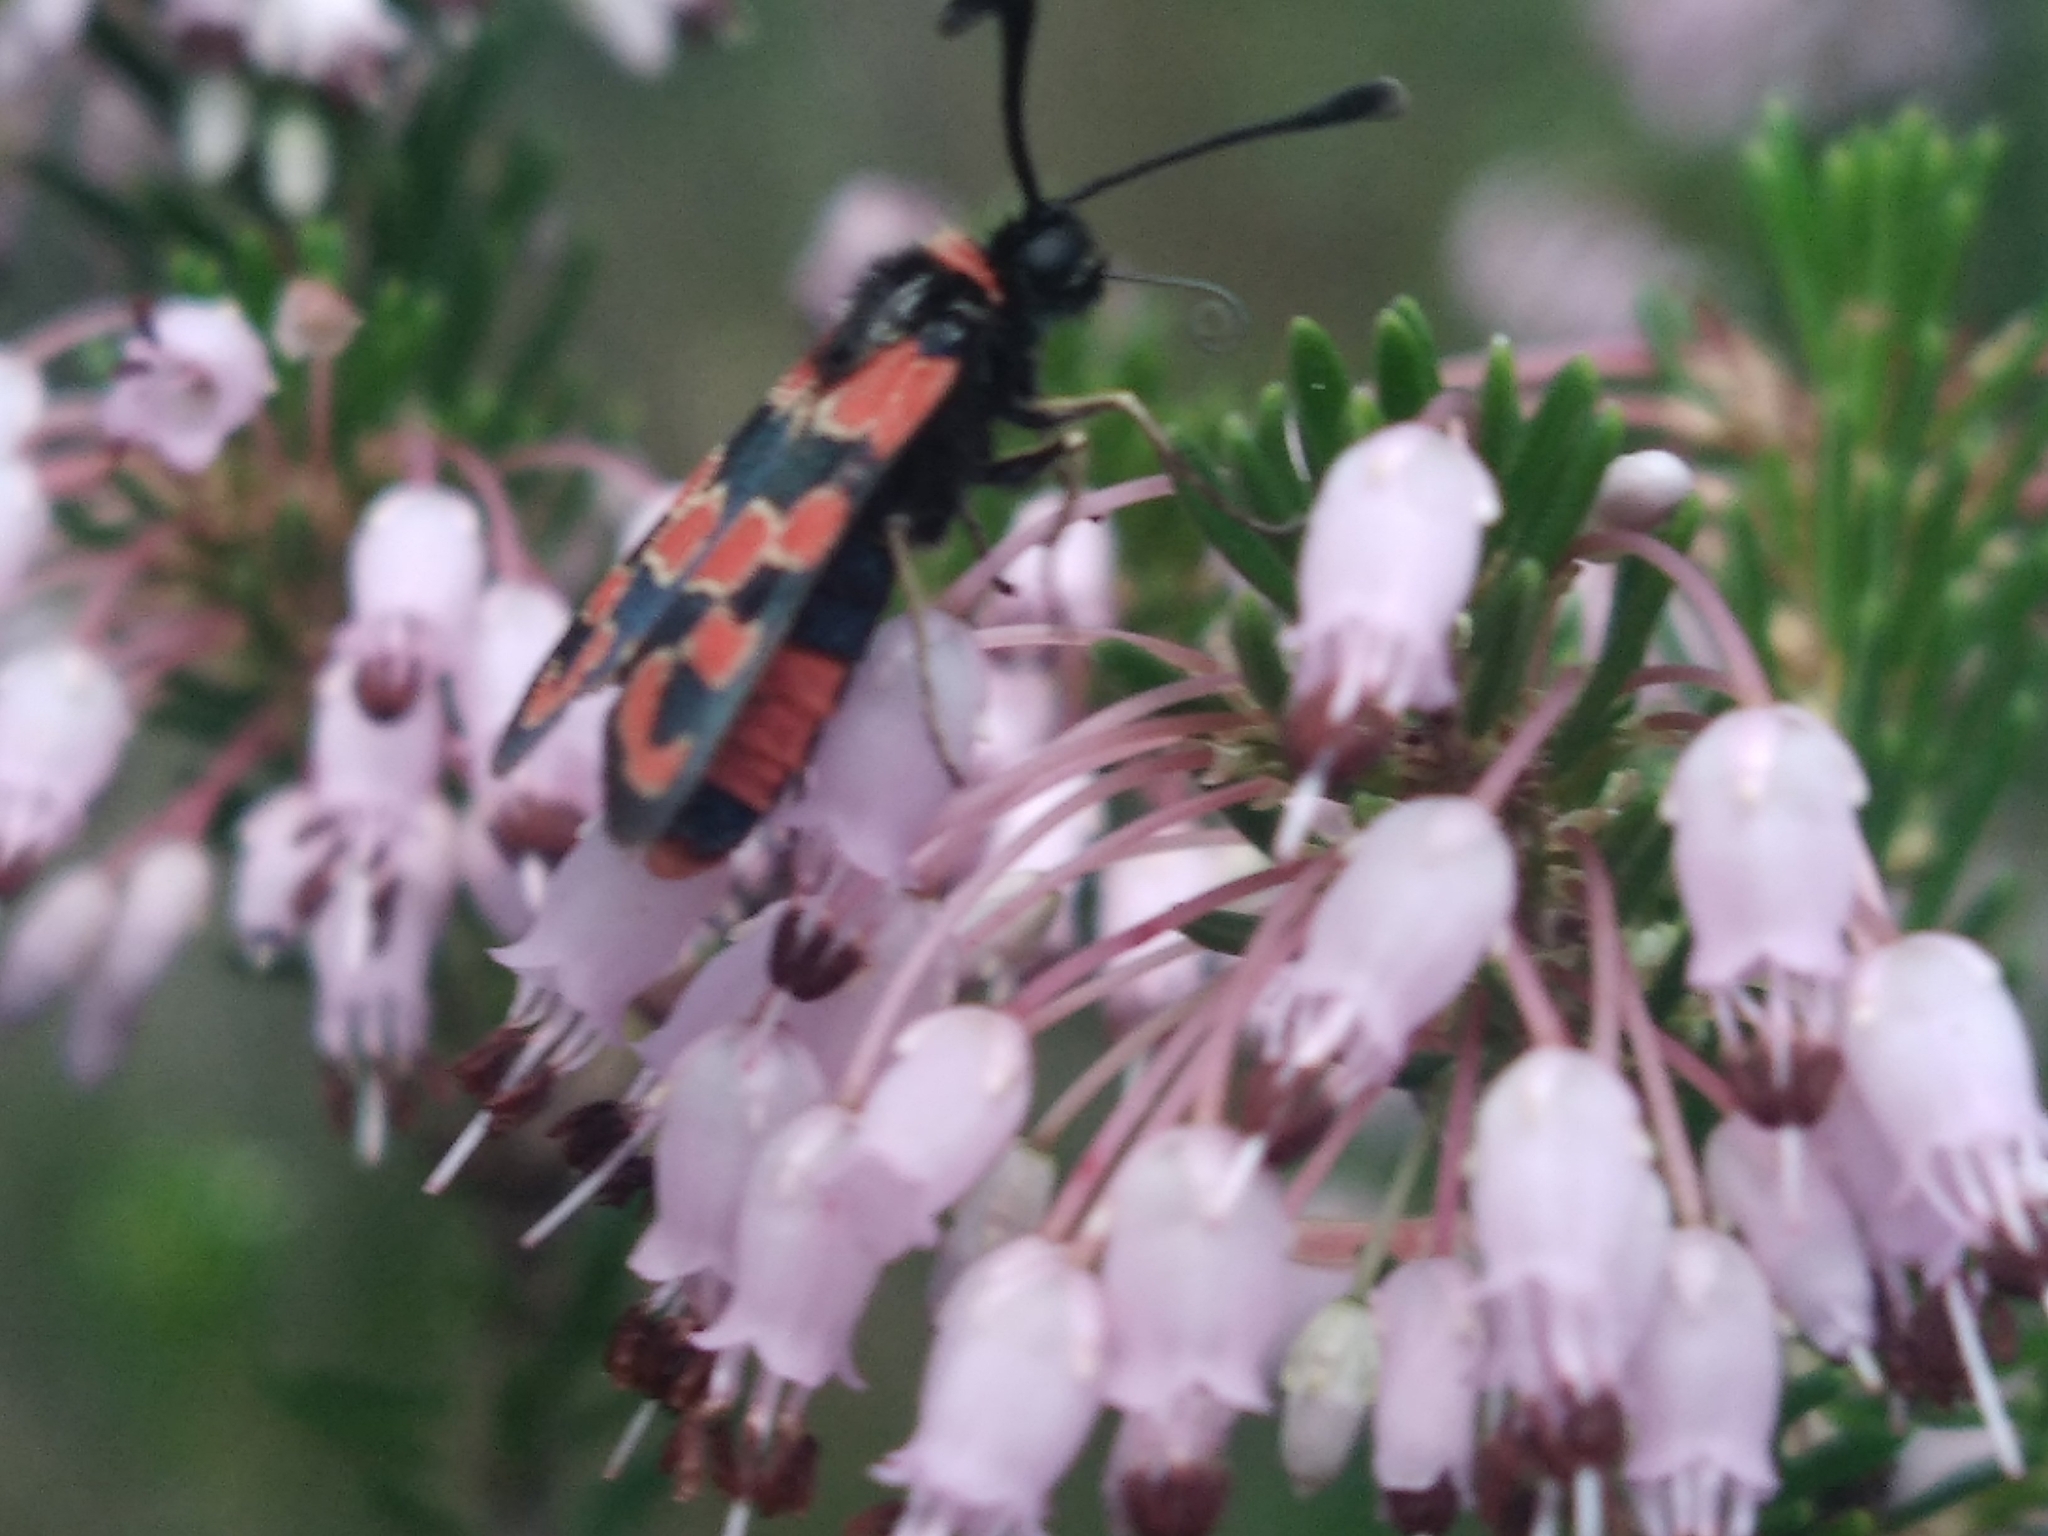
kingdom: Animalia
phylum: Arthropoda
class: Insecta
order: Lepidoptera
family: Zygaenidae
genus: Zygaena
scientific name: Zygaena fausta
